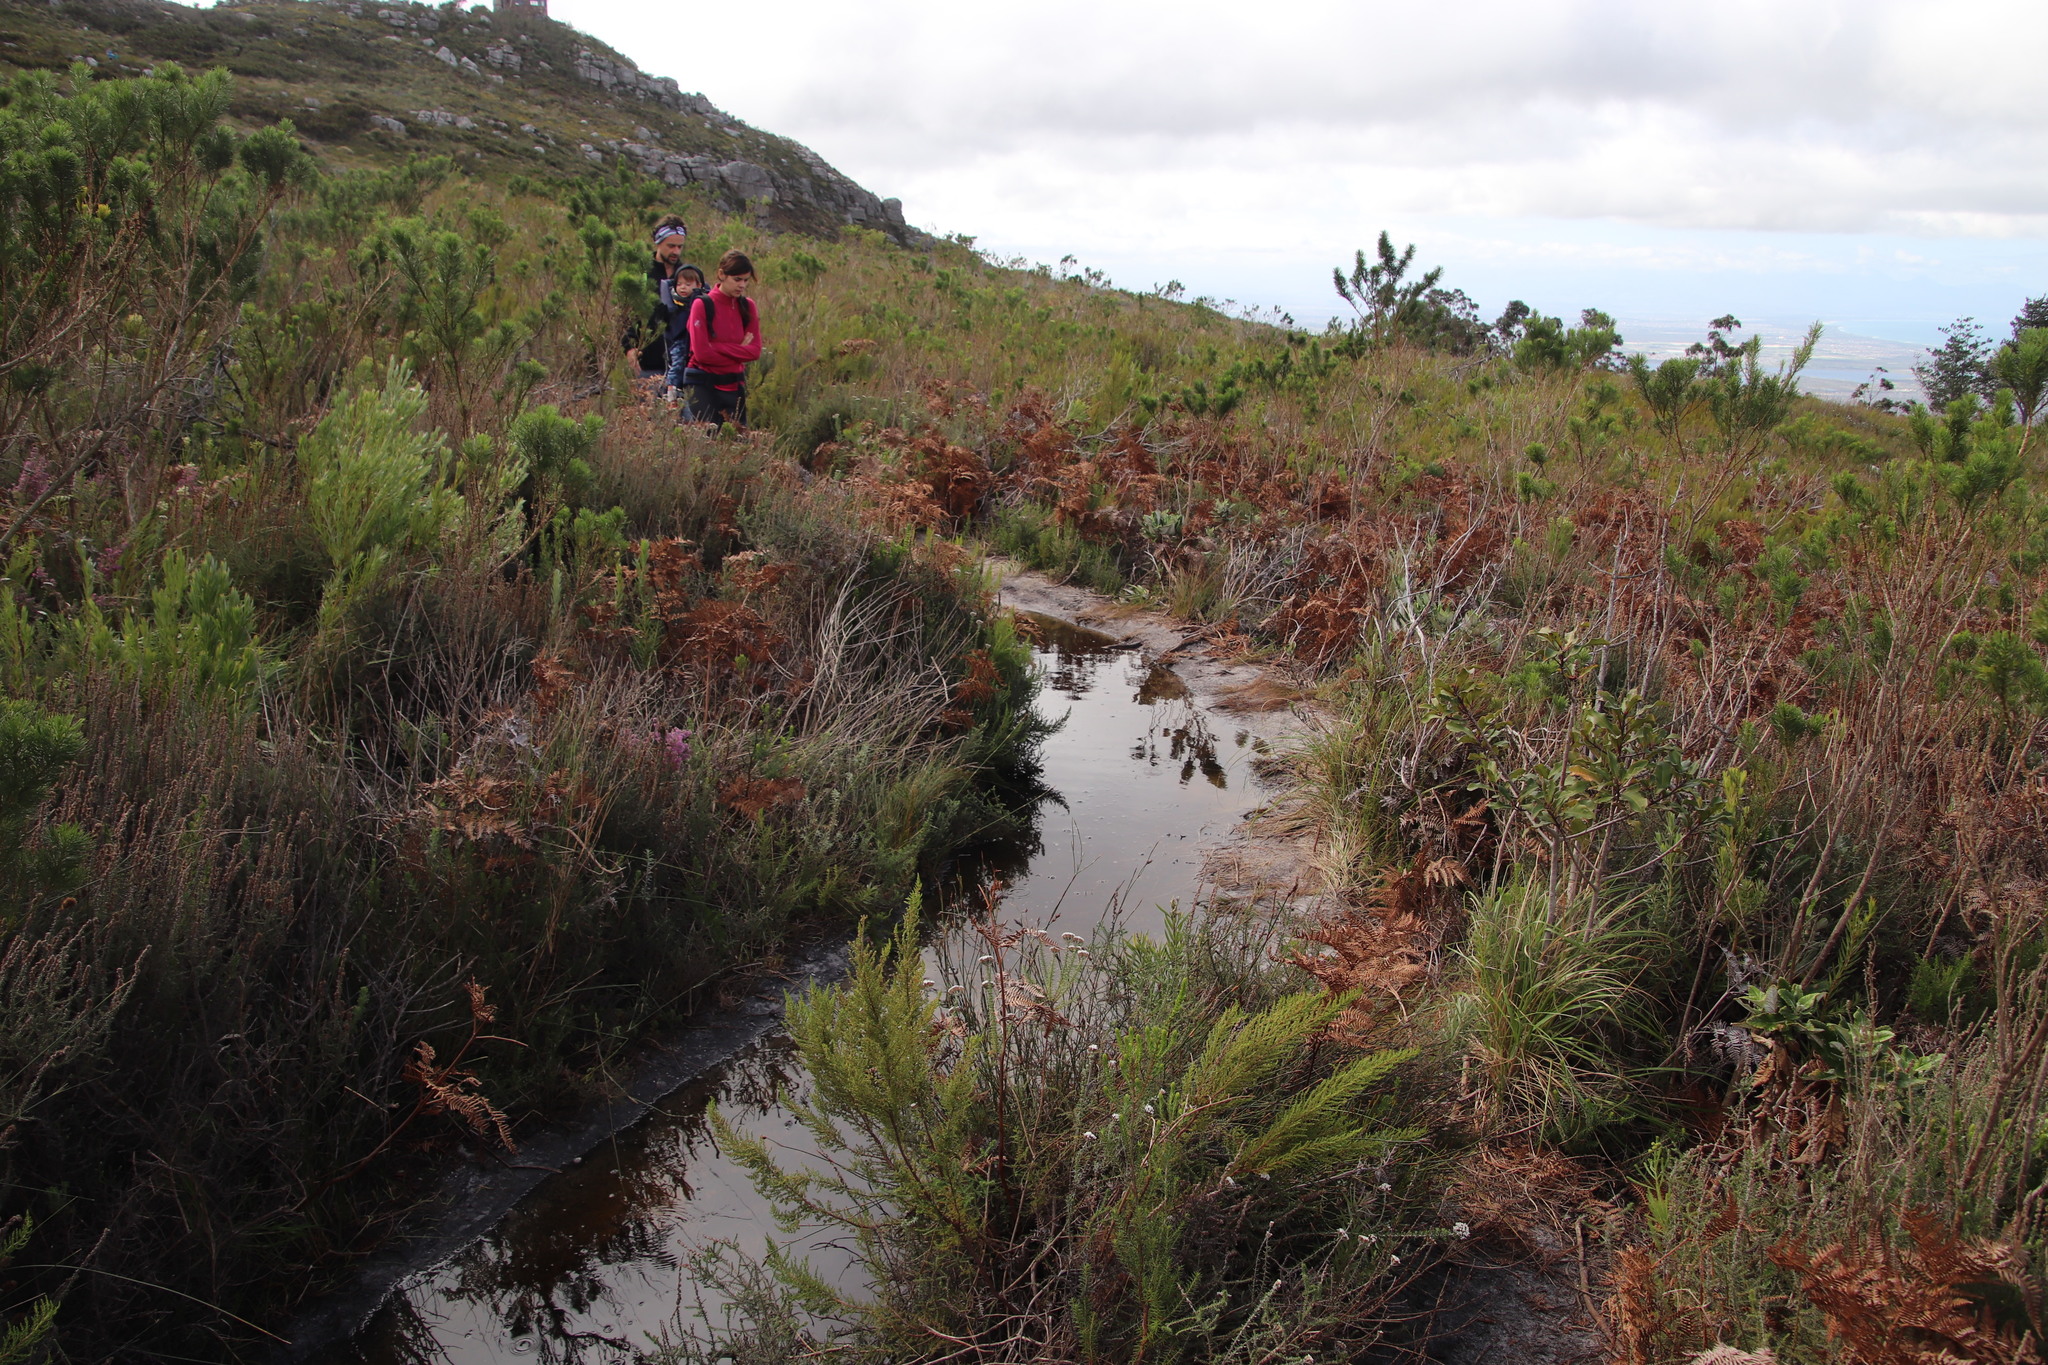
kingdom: Plantae
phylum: Tracheophyta
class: Polypodiopsida
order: Polypodiales
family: Dennstaedtiaceae
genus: Pteridium
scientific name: Pteridium aquilinum
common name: Bracken
